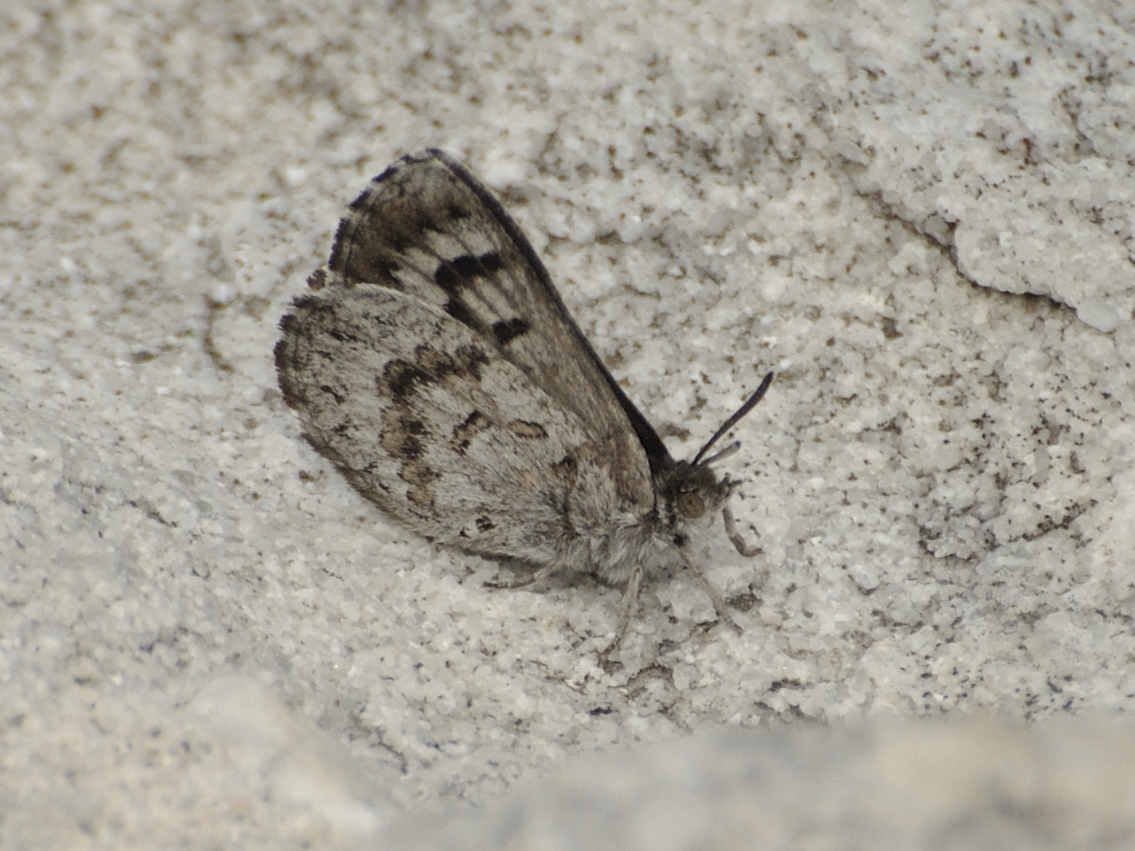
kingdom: Animalia
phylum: Arthropoda
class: Insecta
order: Lepidoptera
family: Lycaenidae
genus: Thestor
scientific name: Thestor yildizae
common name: Peninsula skolly
